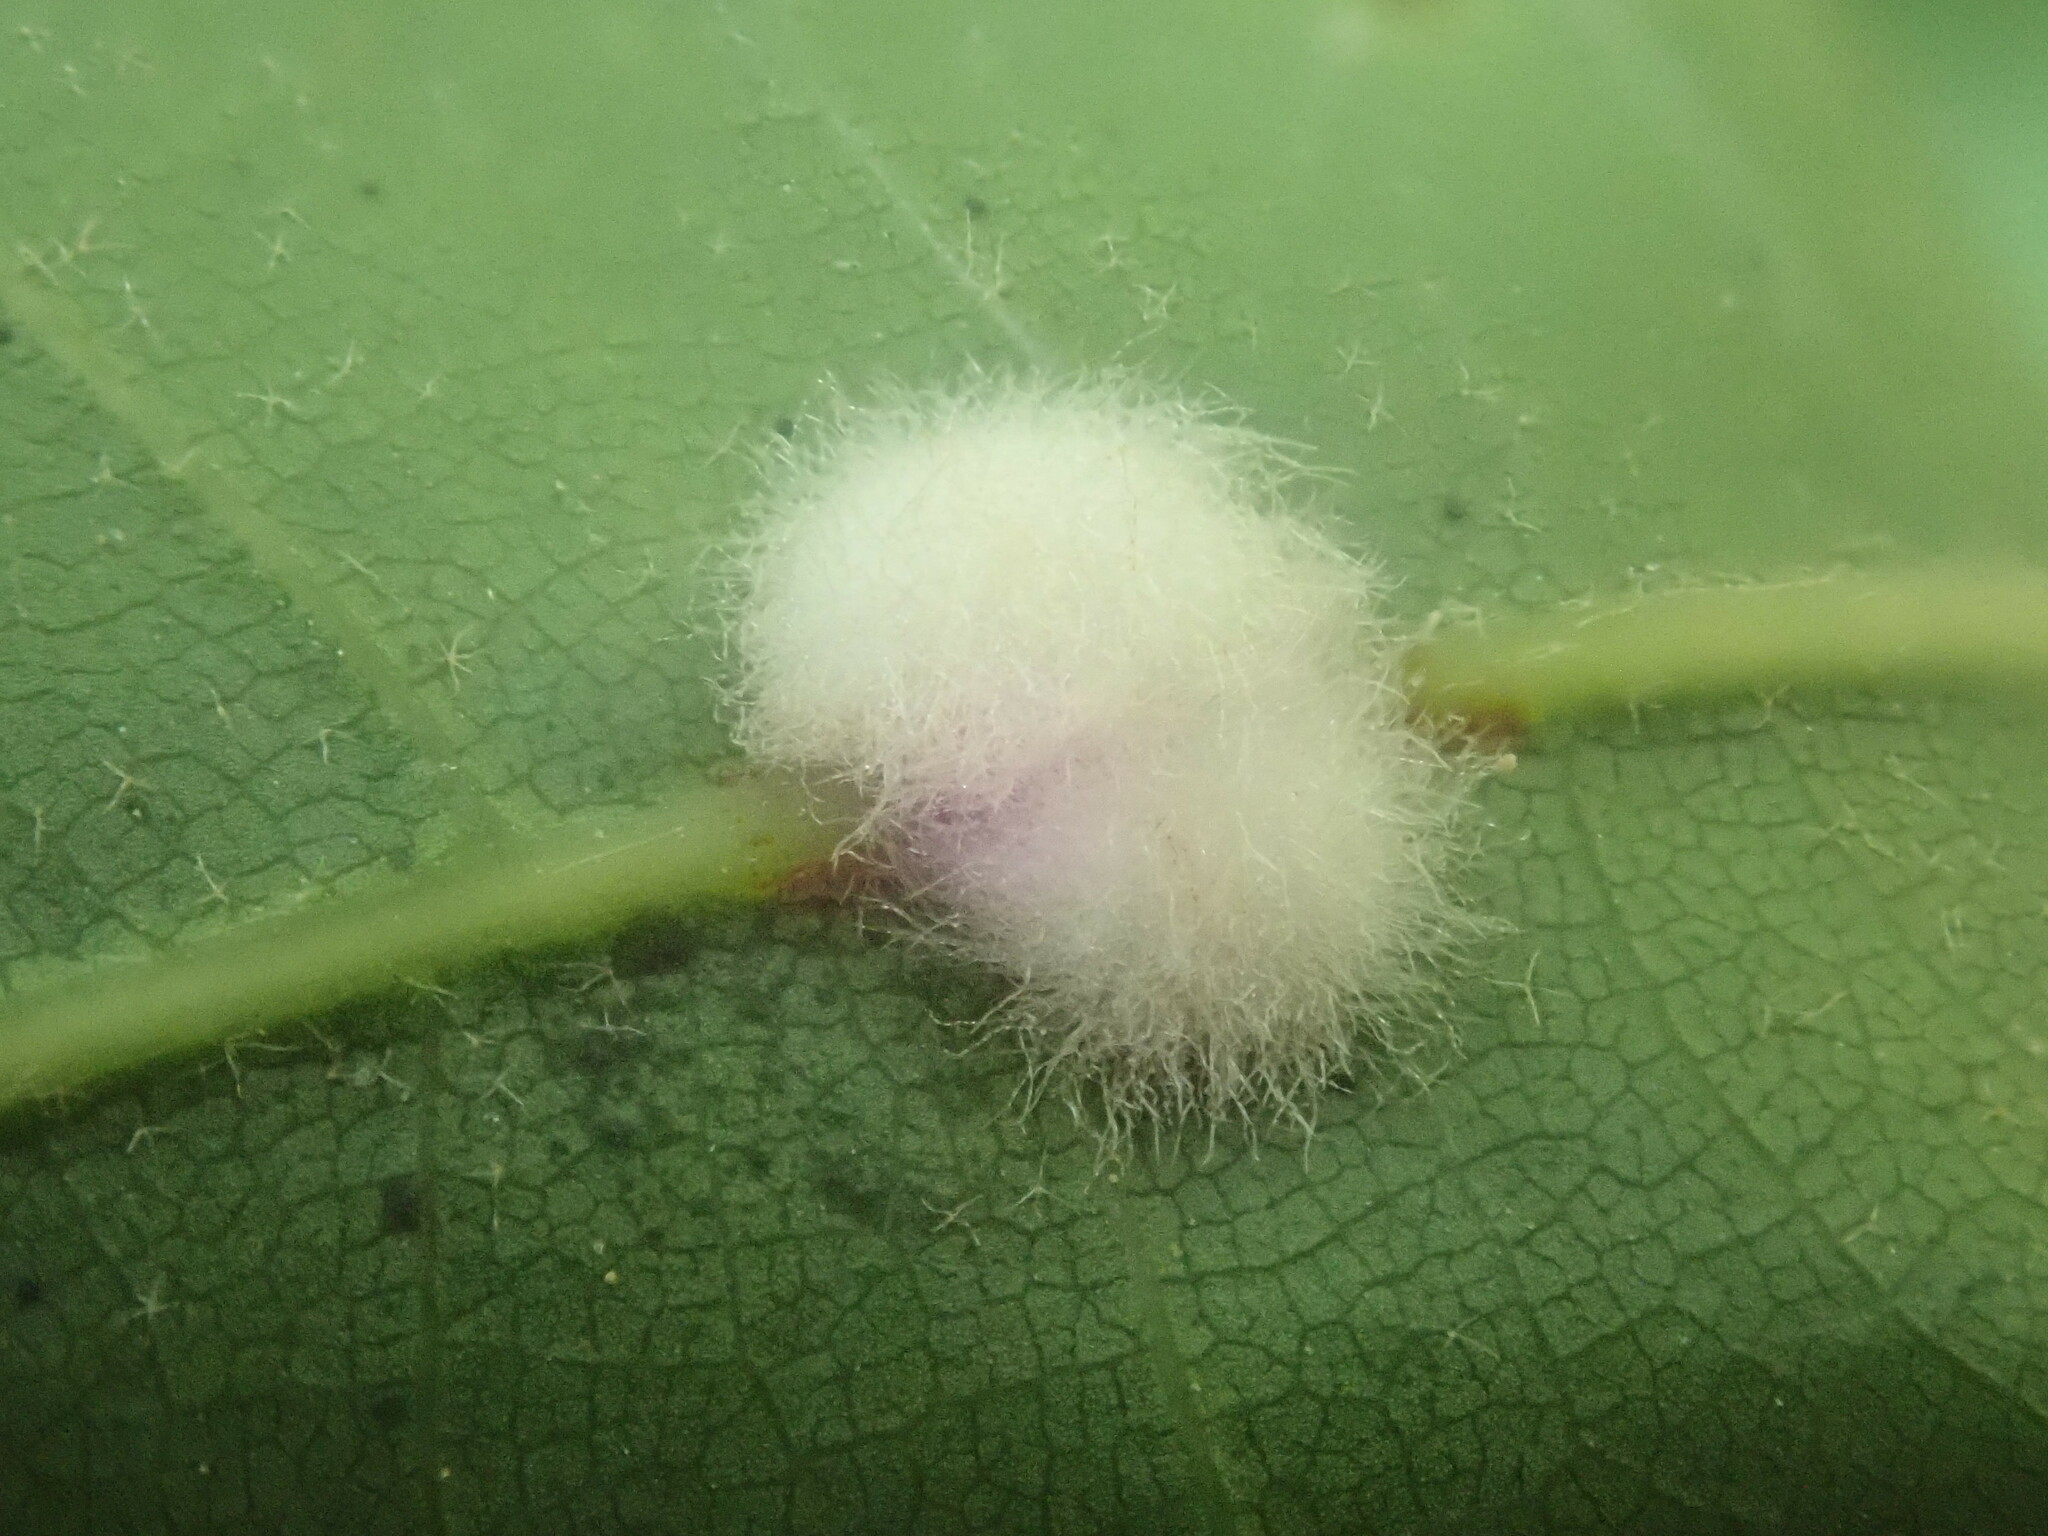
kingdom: Animalia
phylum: Arthropoda
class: Insecta
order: Hymenoptera
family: Cynipidae
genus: Callirhytis
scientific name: Callirhytis
